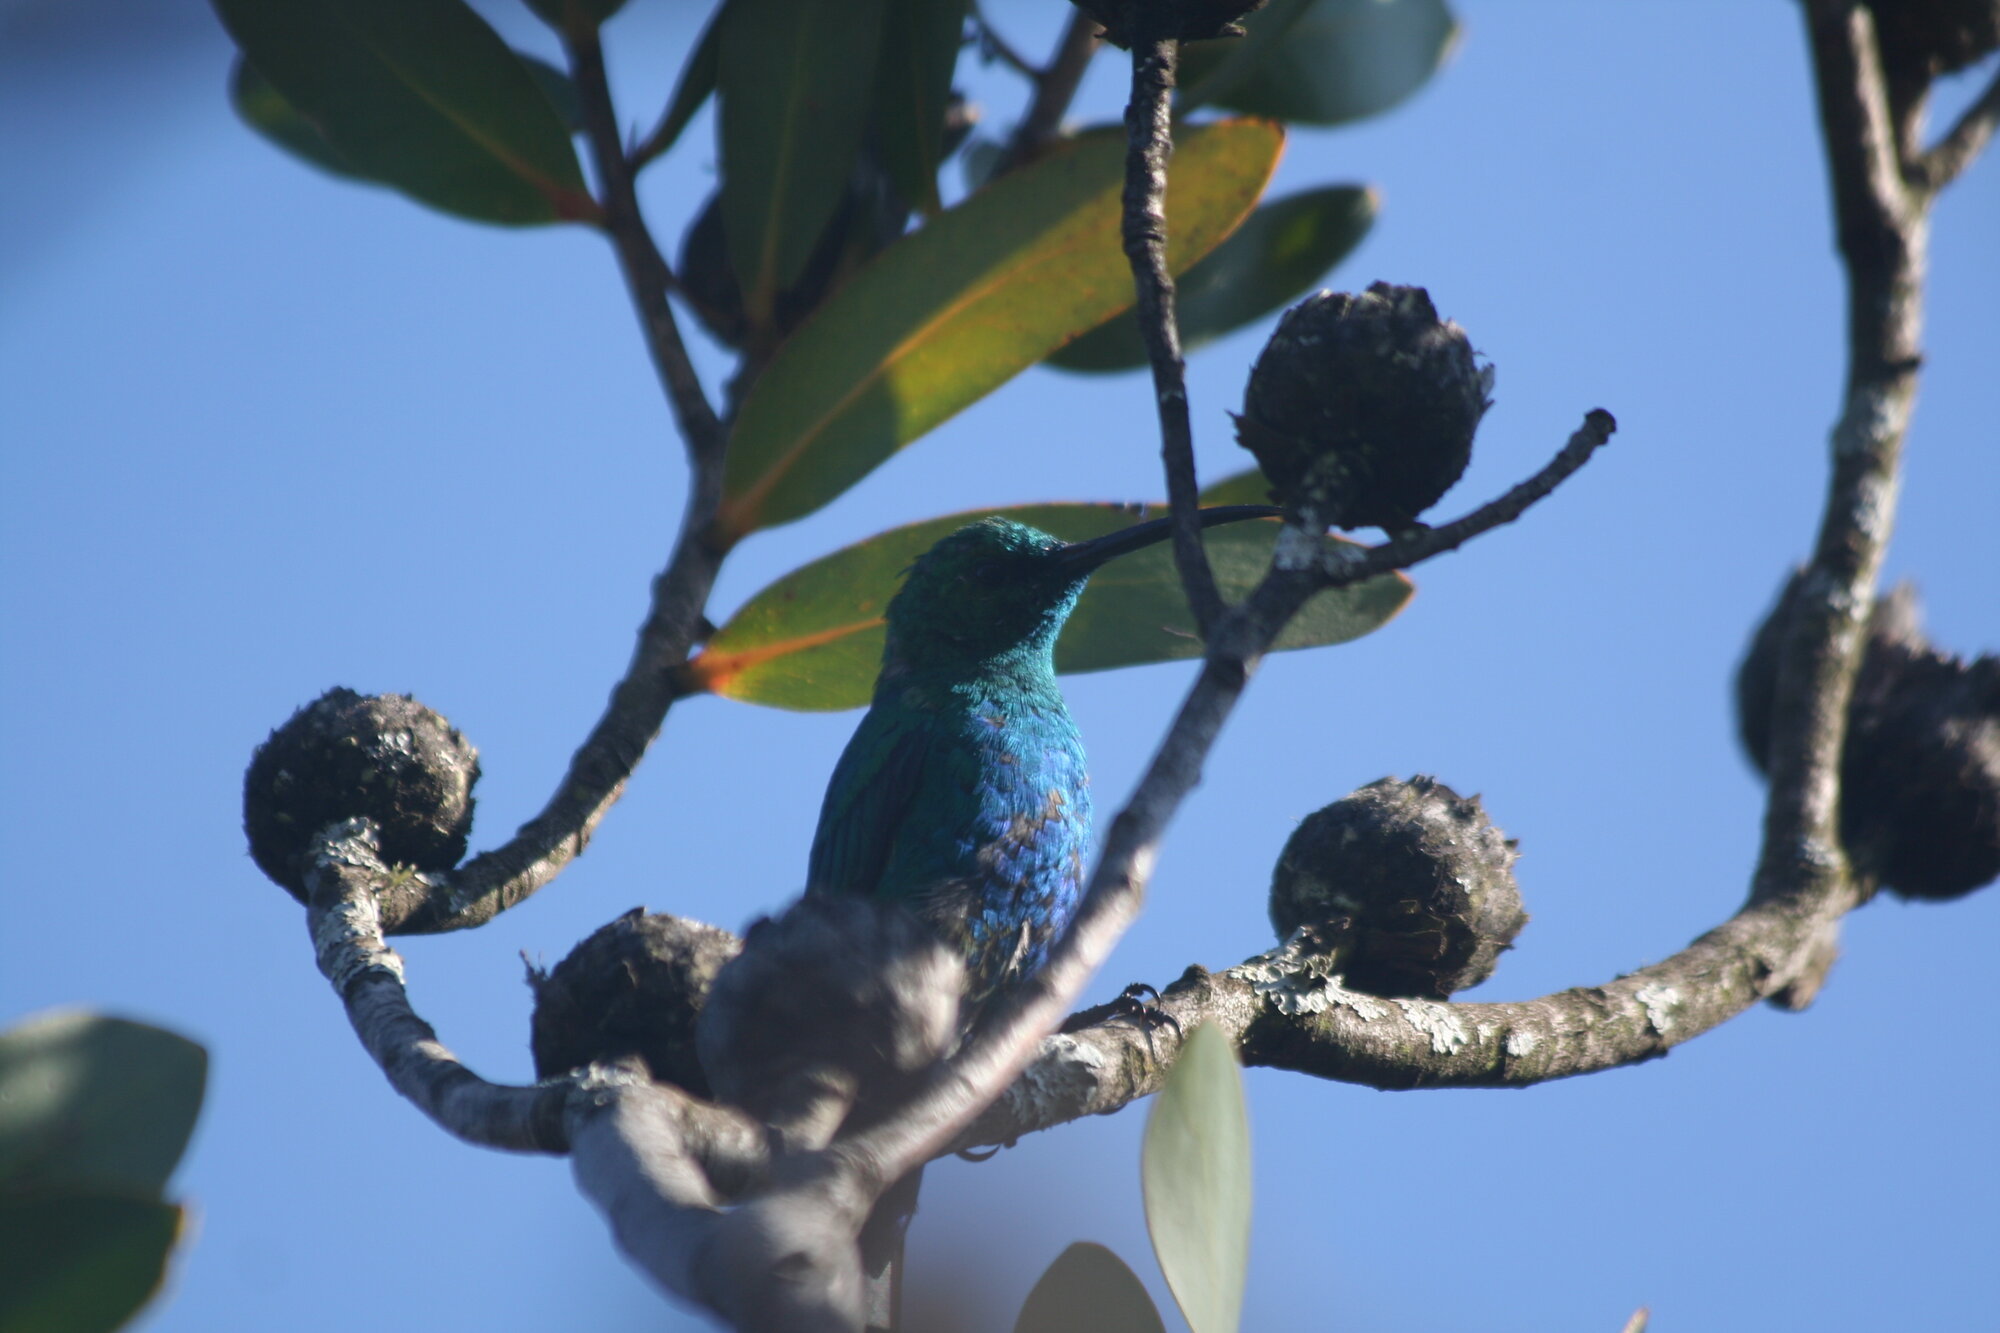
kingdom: Animalia
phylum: Chordata
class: Aves
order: Passeriformes
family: Nectariniidae
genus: Nectarinia
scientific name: Nectarinia famosa
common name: Malachite sunbird
